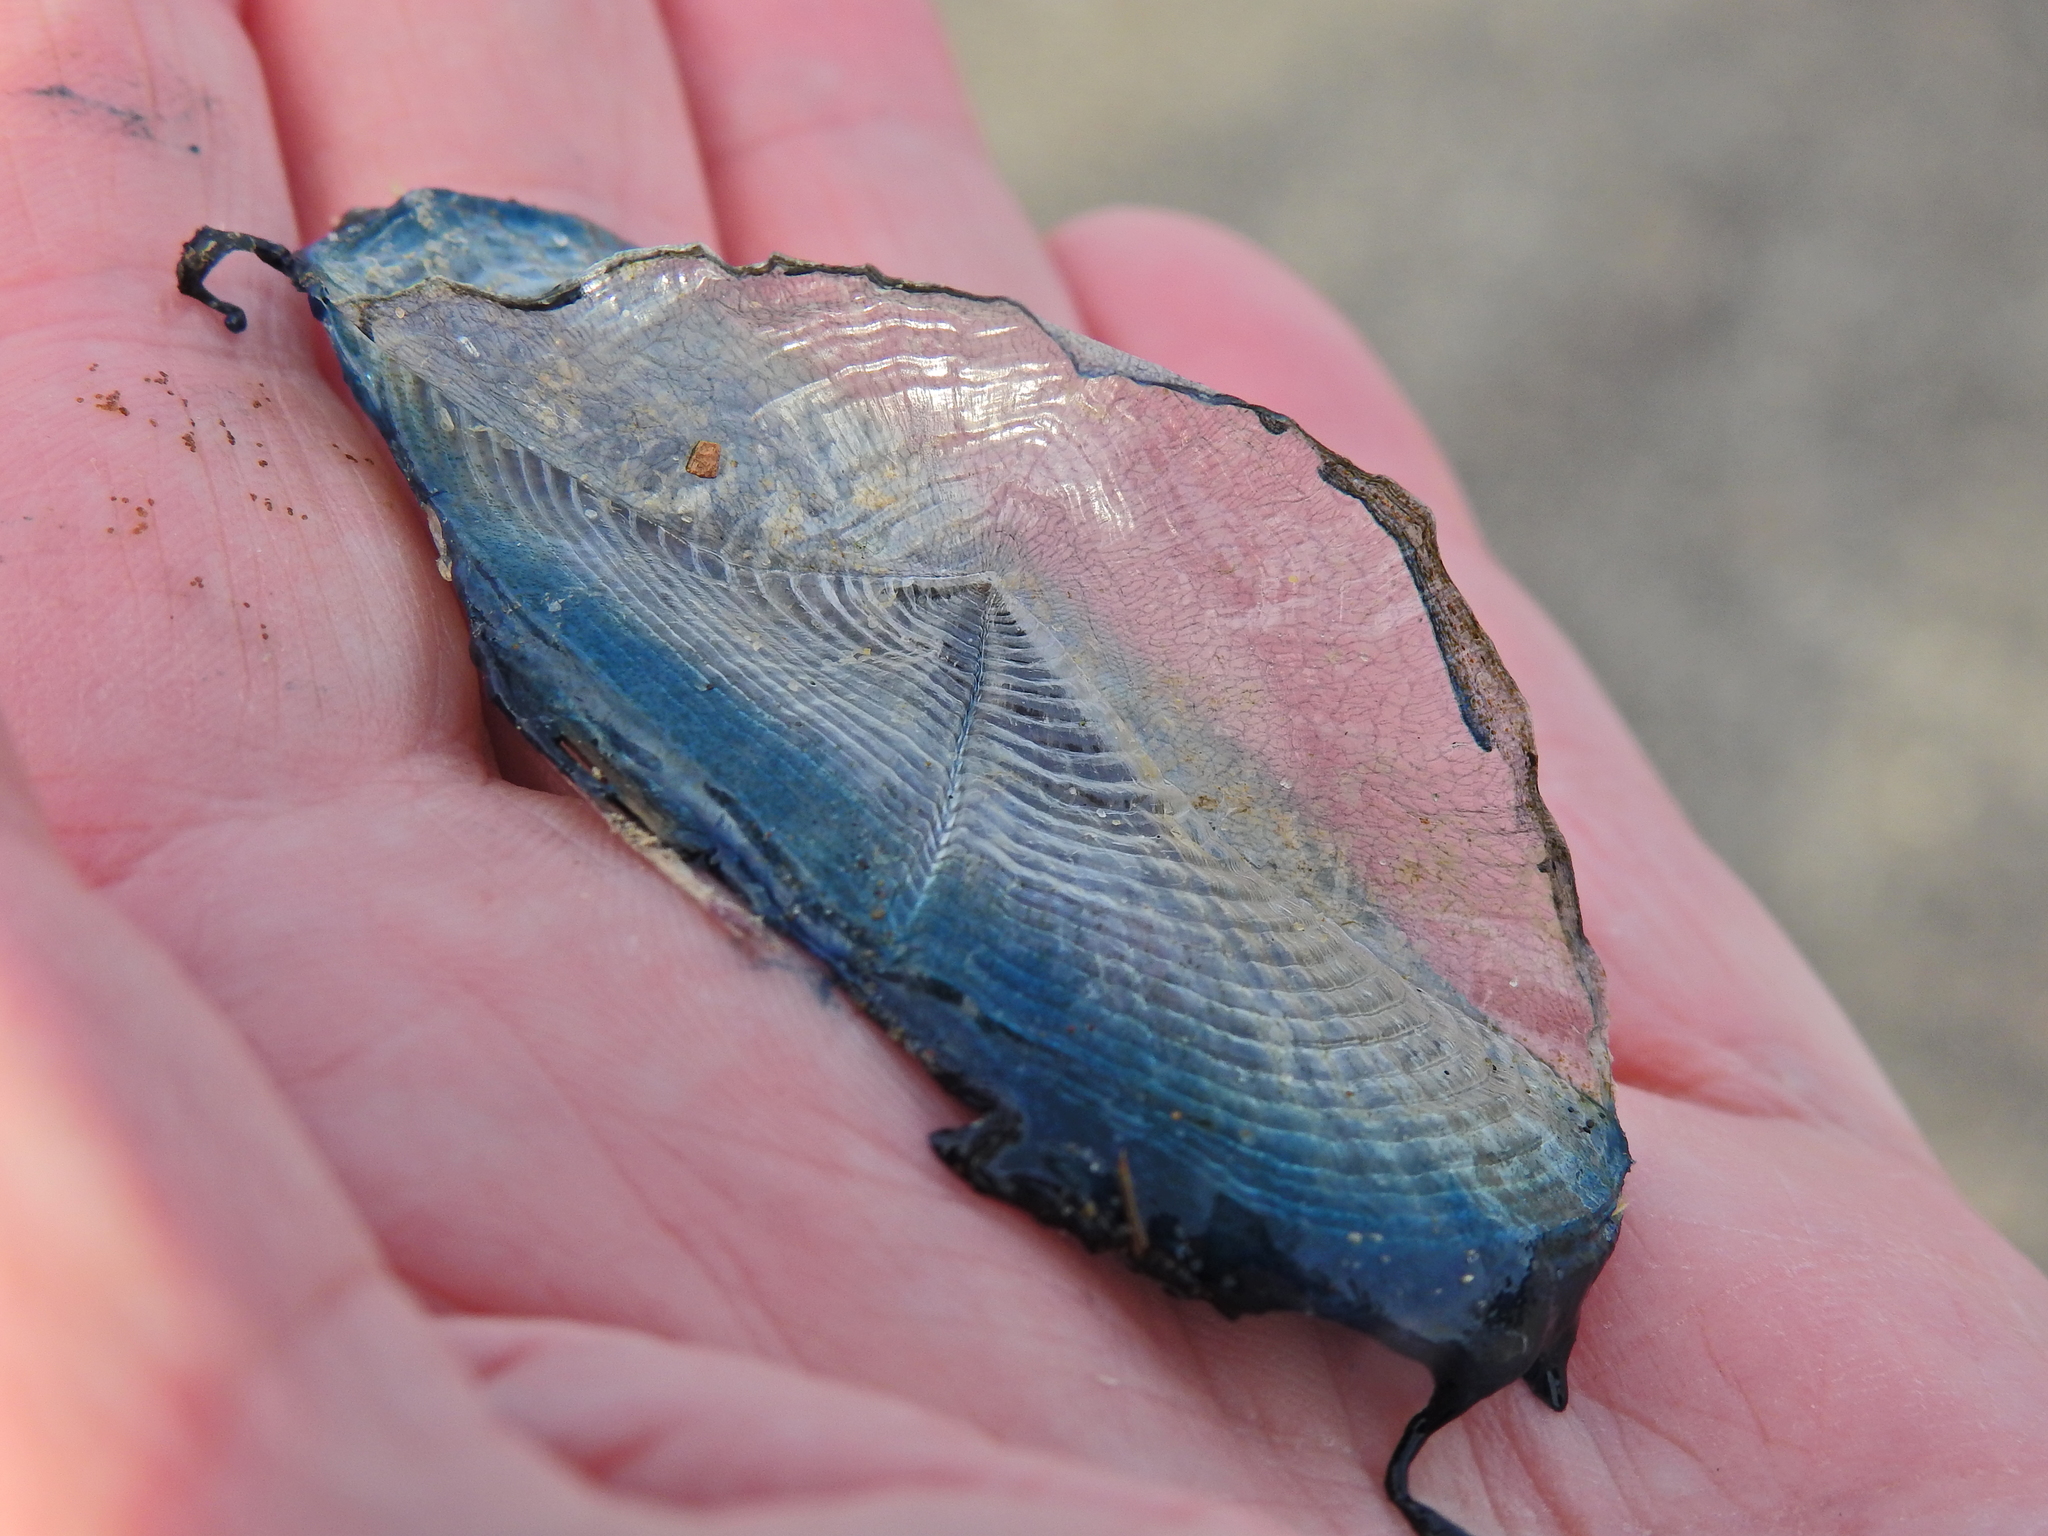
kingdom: Animalia
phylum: Cnidaria
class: Hydrozoa
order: Anthoathecata
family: Porpitidae
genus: Velella
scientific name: Velella velella
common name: By-the-wind-sailor
